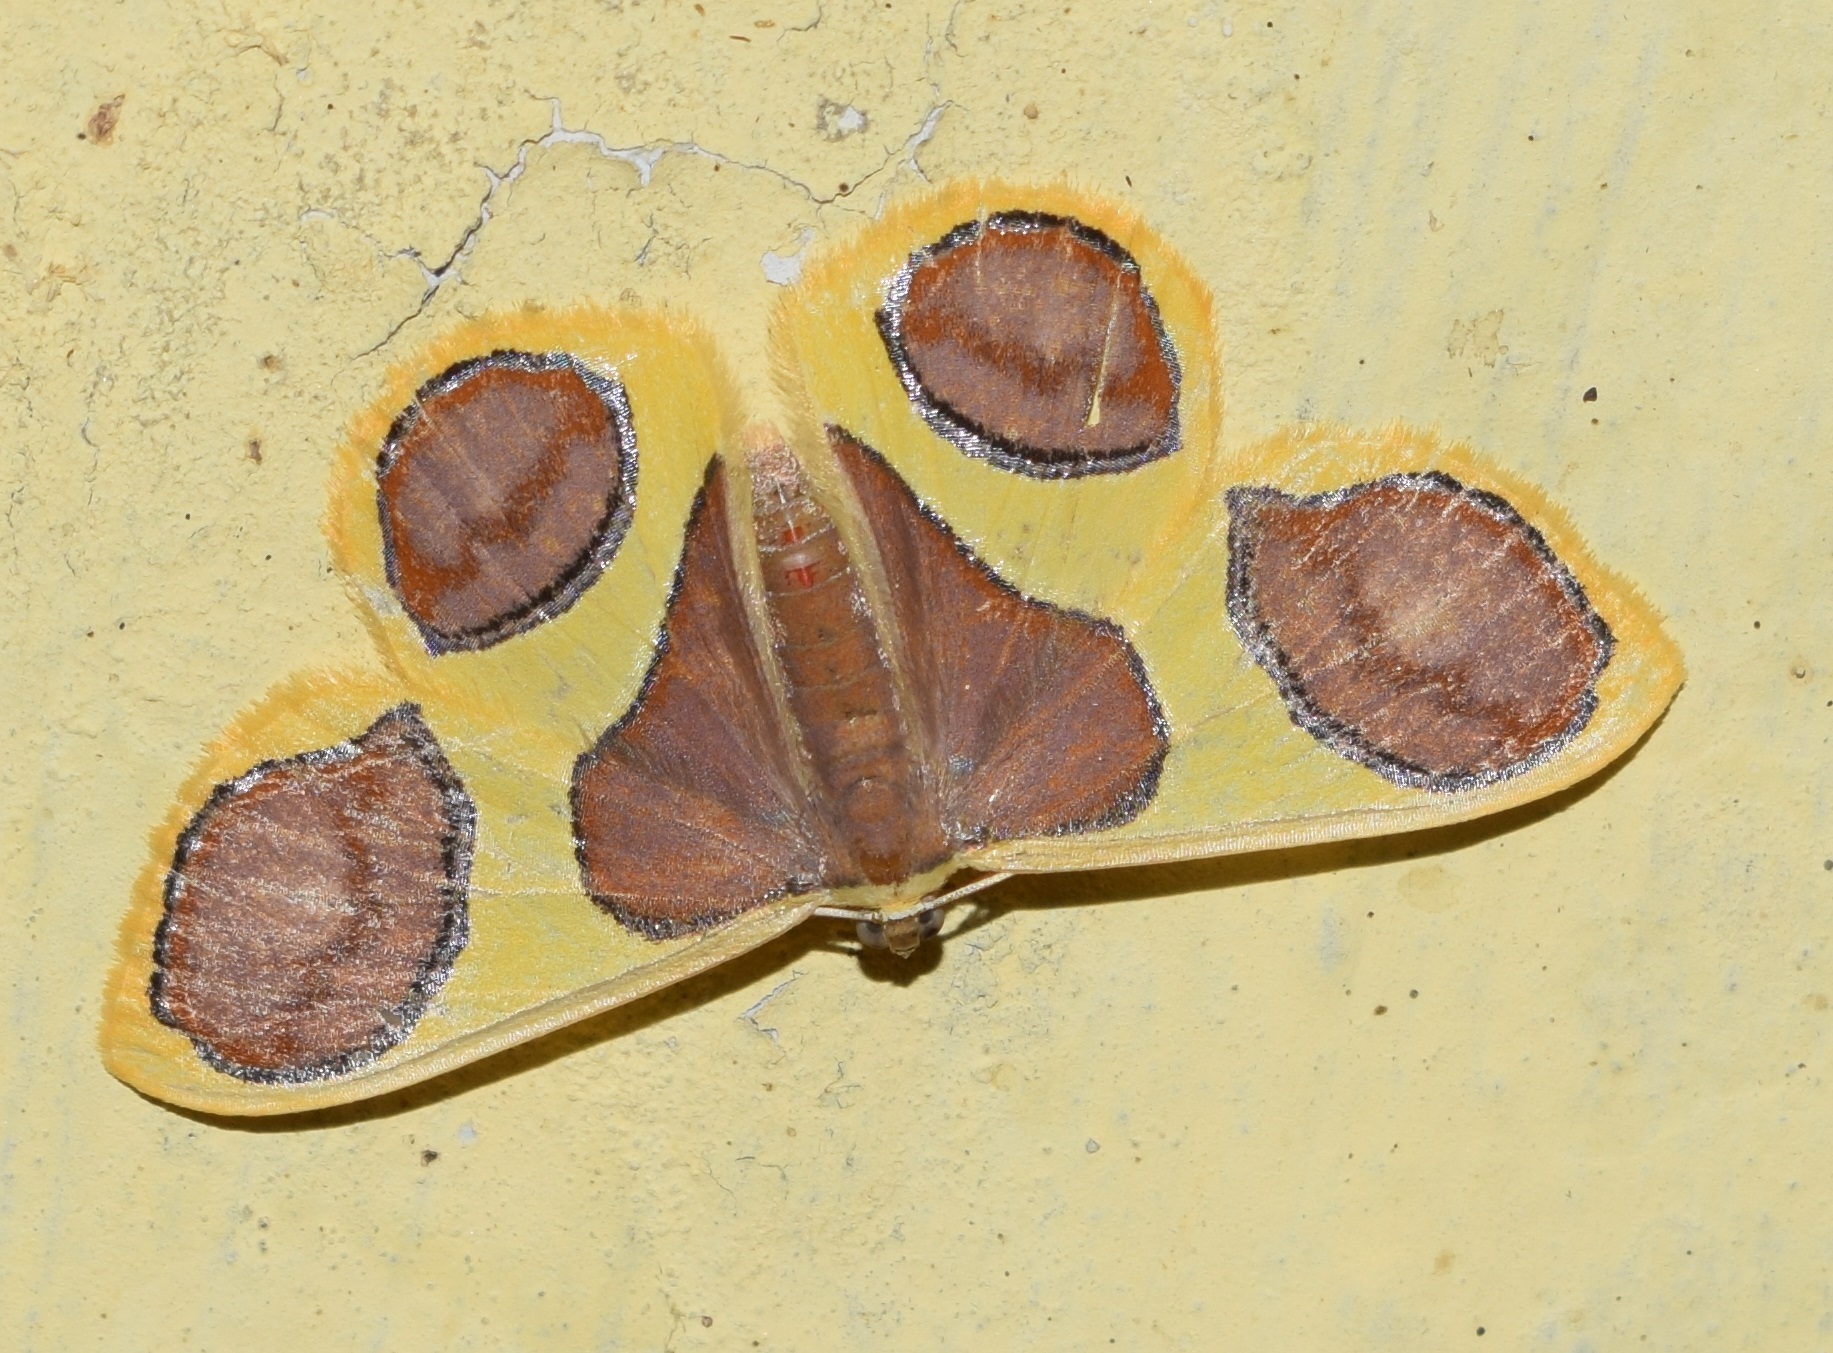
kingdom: Animalia
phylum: Arthropoda
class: Insecta
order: Lepidoptera
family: Geometridae
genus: Plutodes
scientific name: Plutodes flavescens
